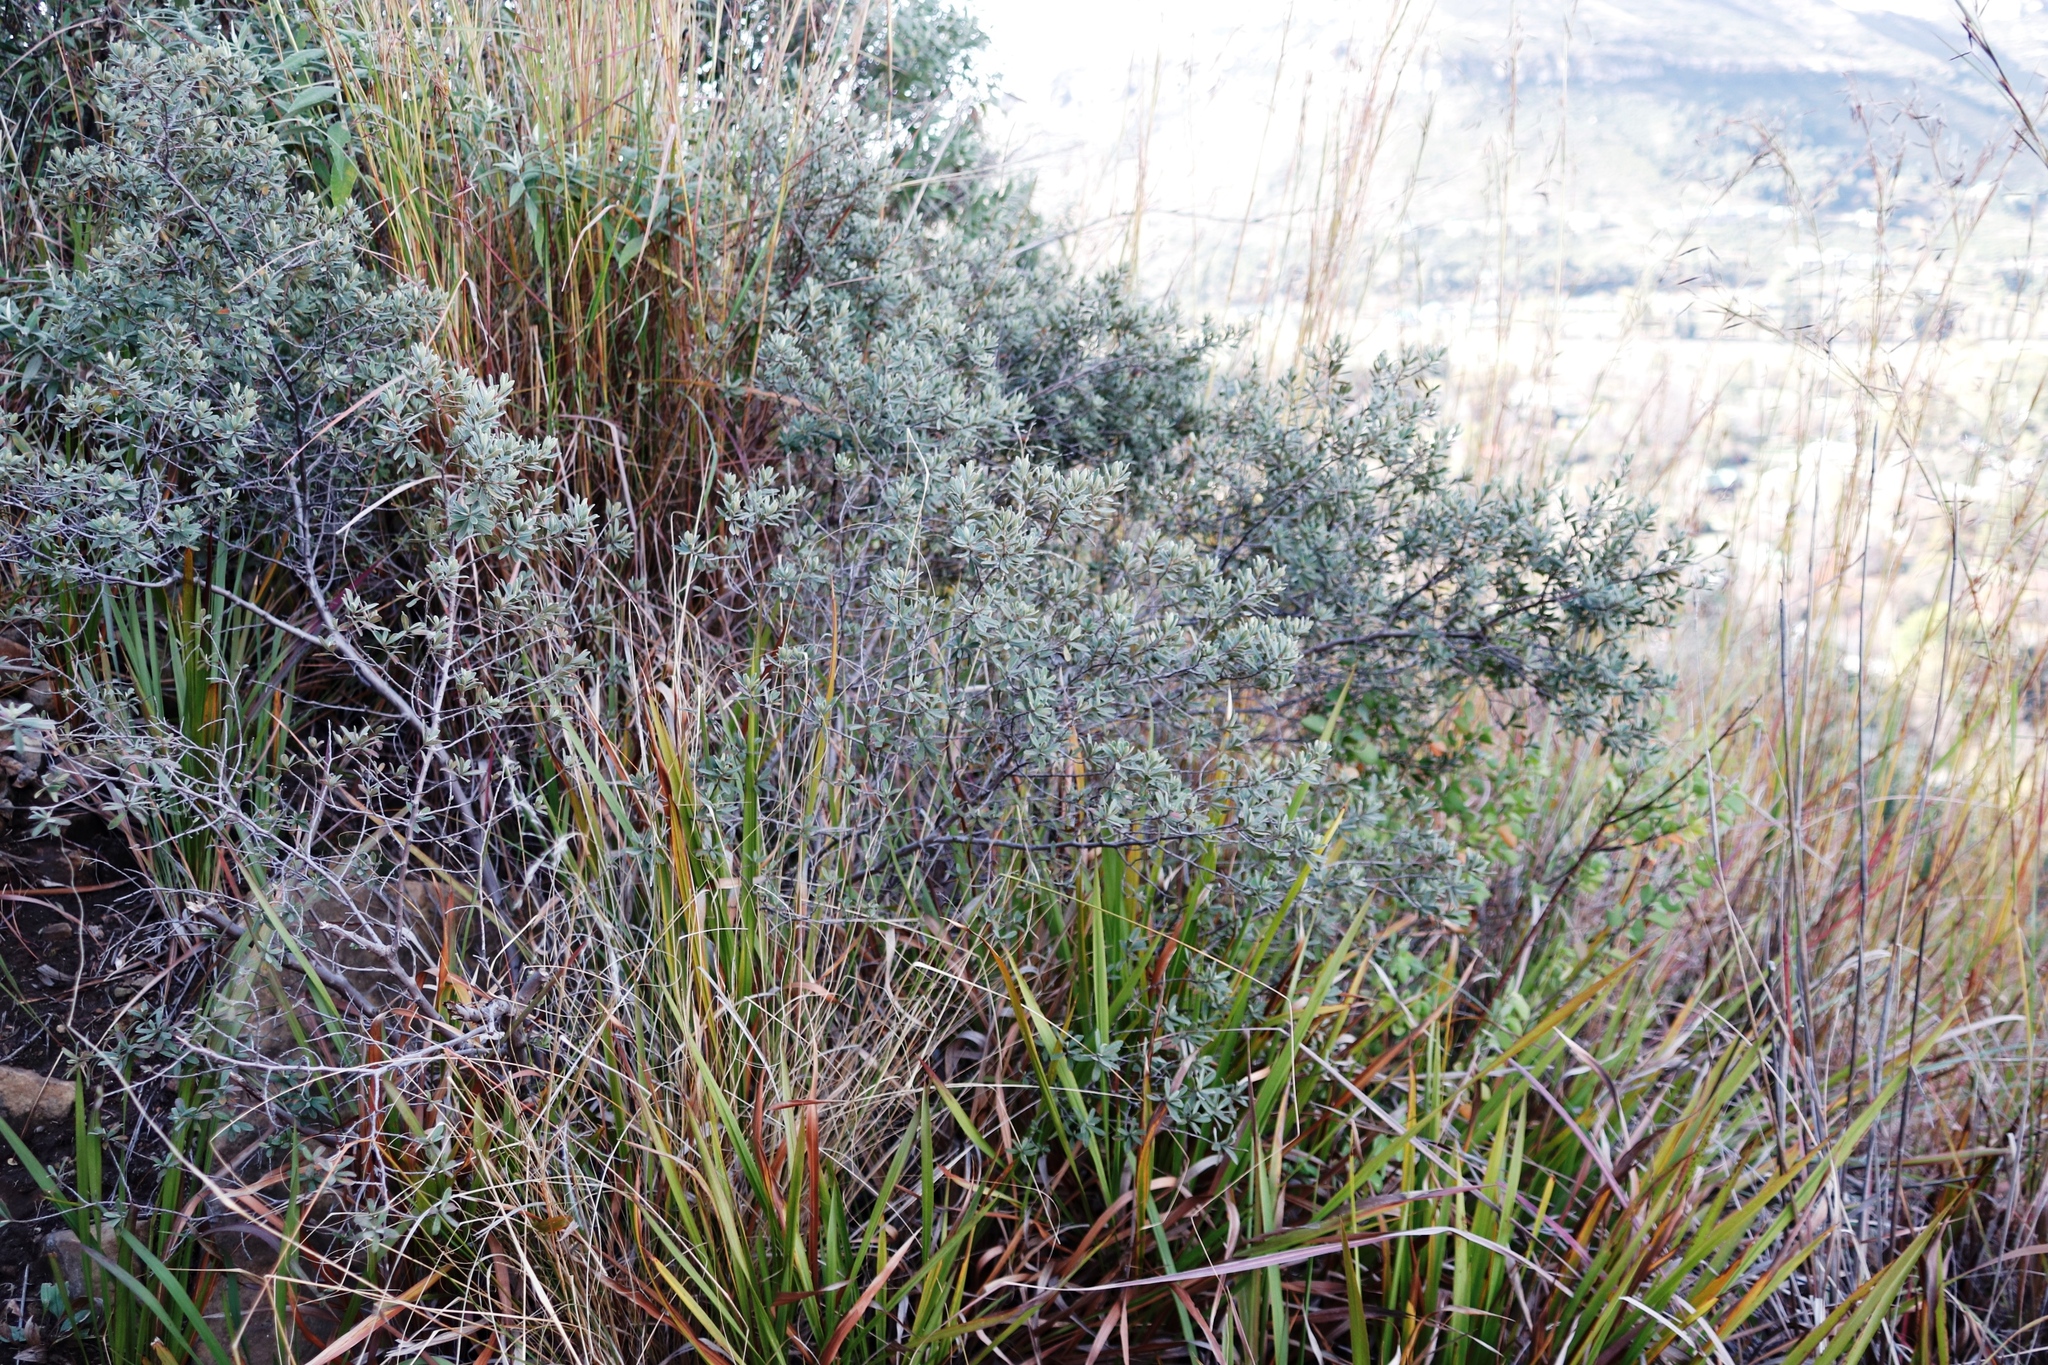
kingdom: Plantae
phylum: Tracheophyta
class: Magnoliopsida
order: Ericales
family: Ebenaceae
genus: Diospyros
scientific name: Diospyros pubescens
